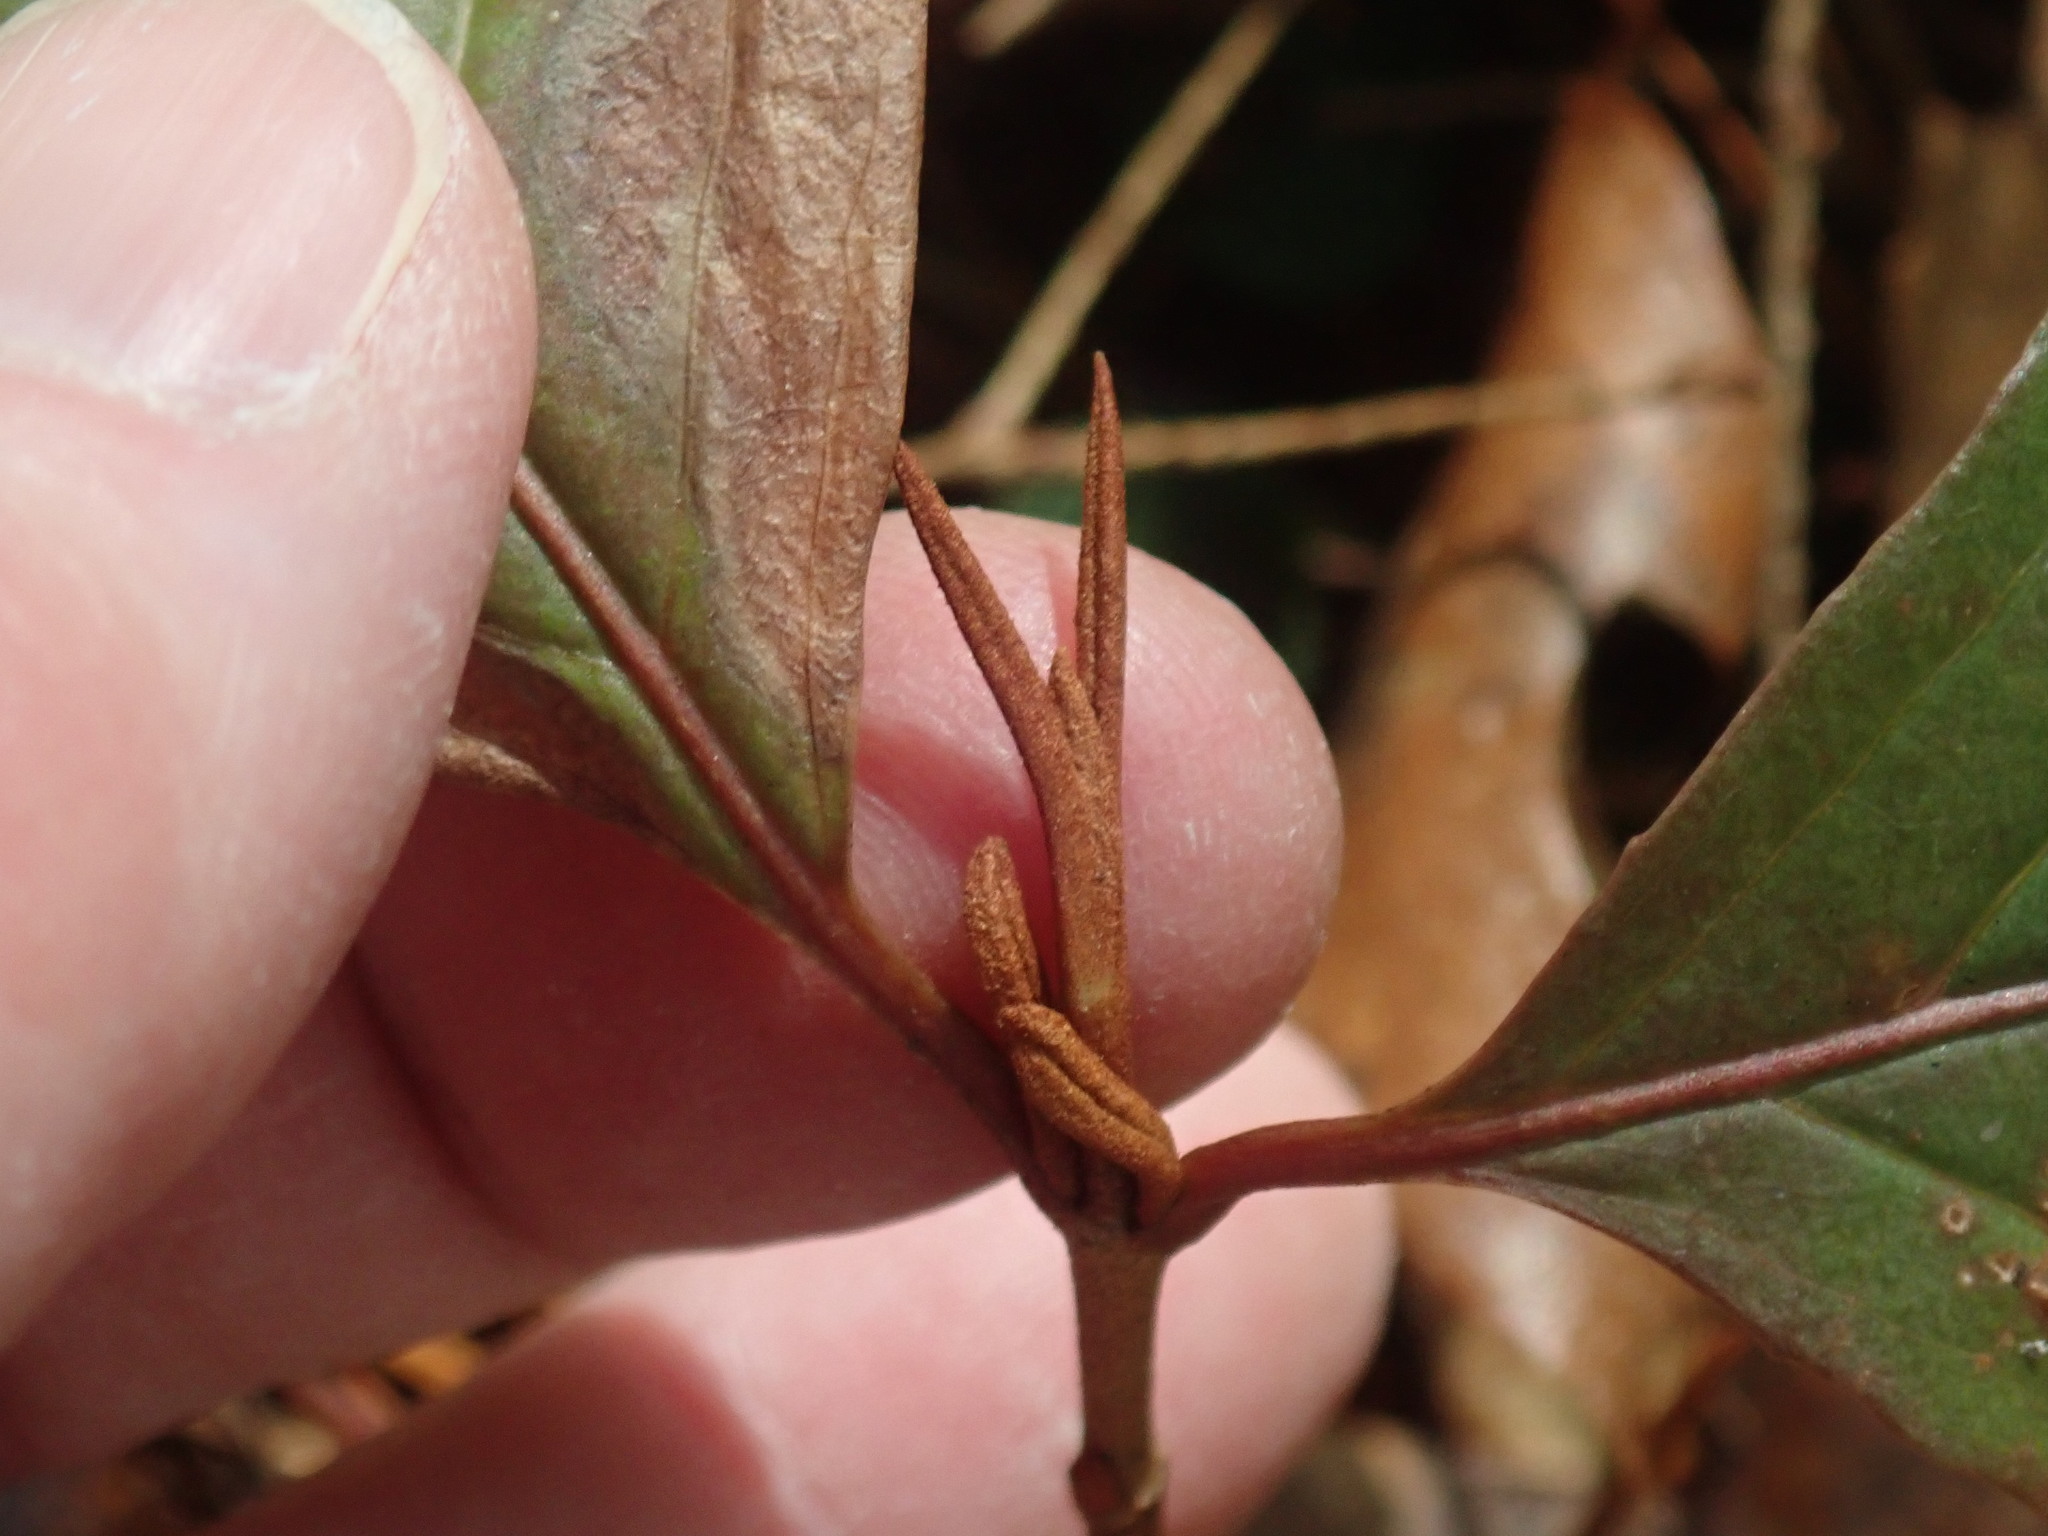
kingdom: Plantae
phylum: Tracheophyta
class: Magnoliopsida
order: Dipsacales
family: Viburnaceae
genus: Viburnum
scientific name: Viburnum cassinoides
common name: Swamp haw
